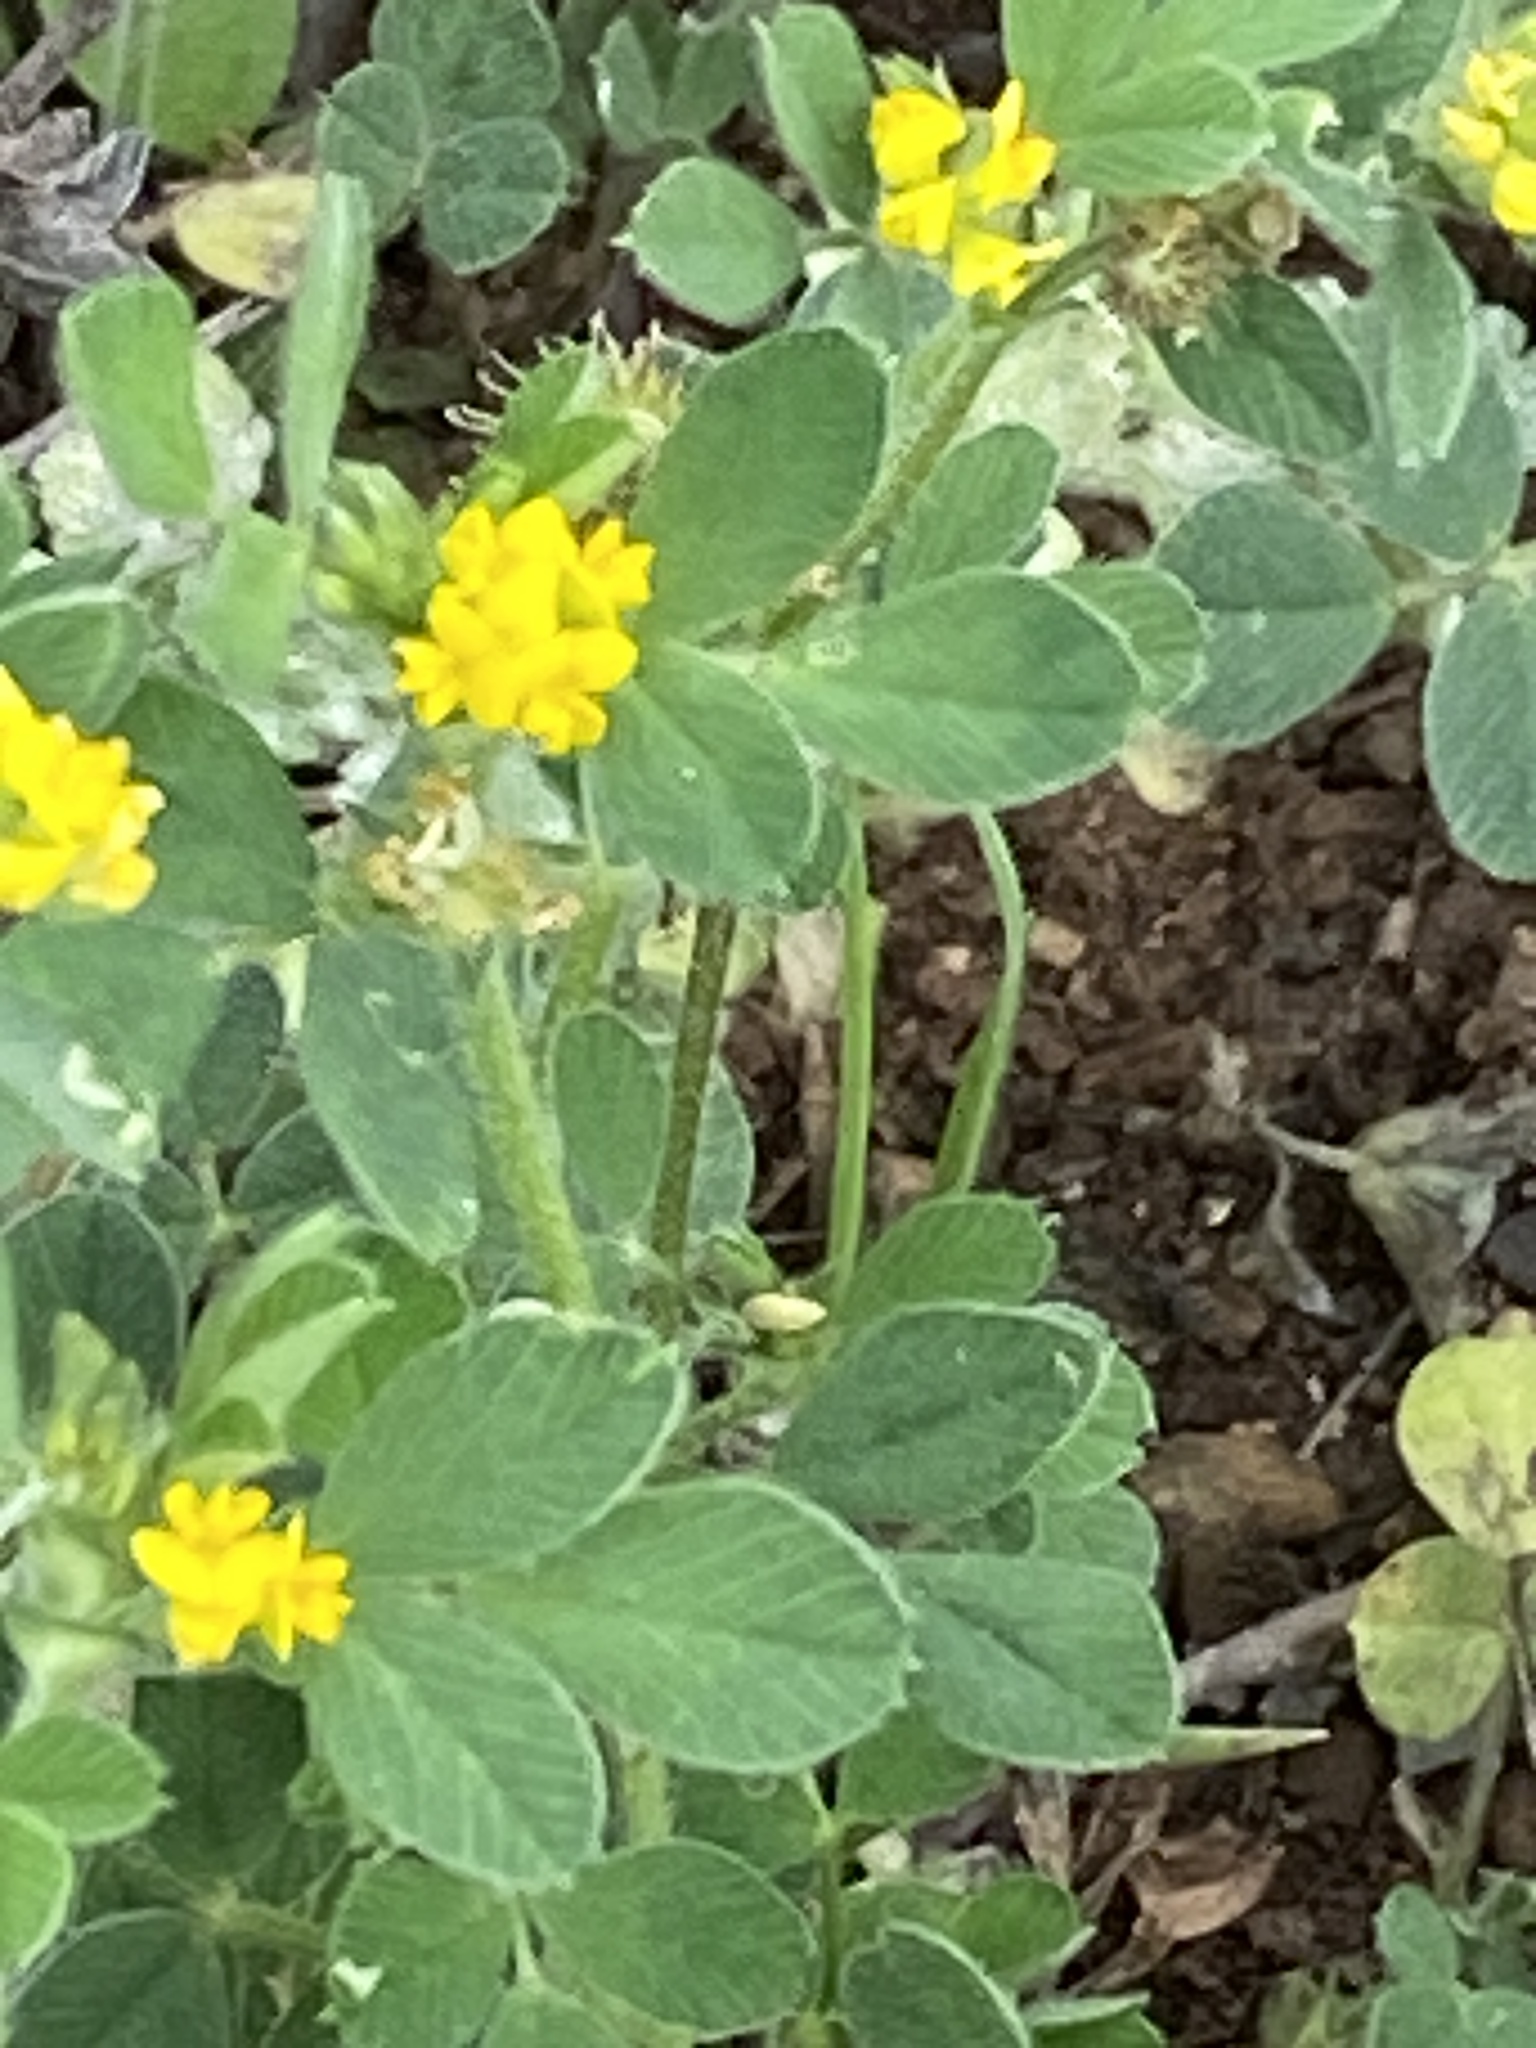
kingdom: Plantae
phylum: Tracheophyta
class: Magnoliopsida
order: Fabales
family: Fabaceae
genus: Medicago
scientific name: Medicago minima
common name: Little bur-clover
